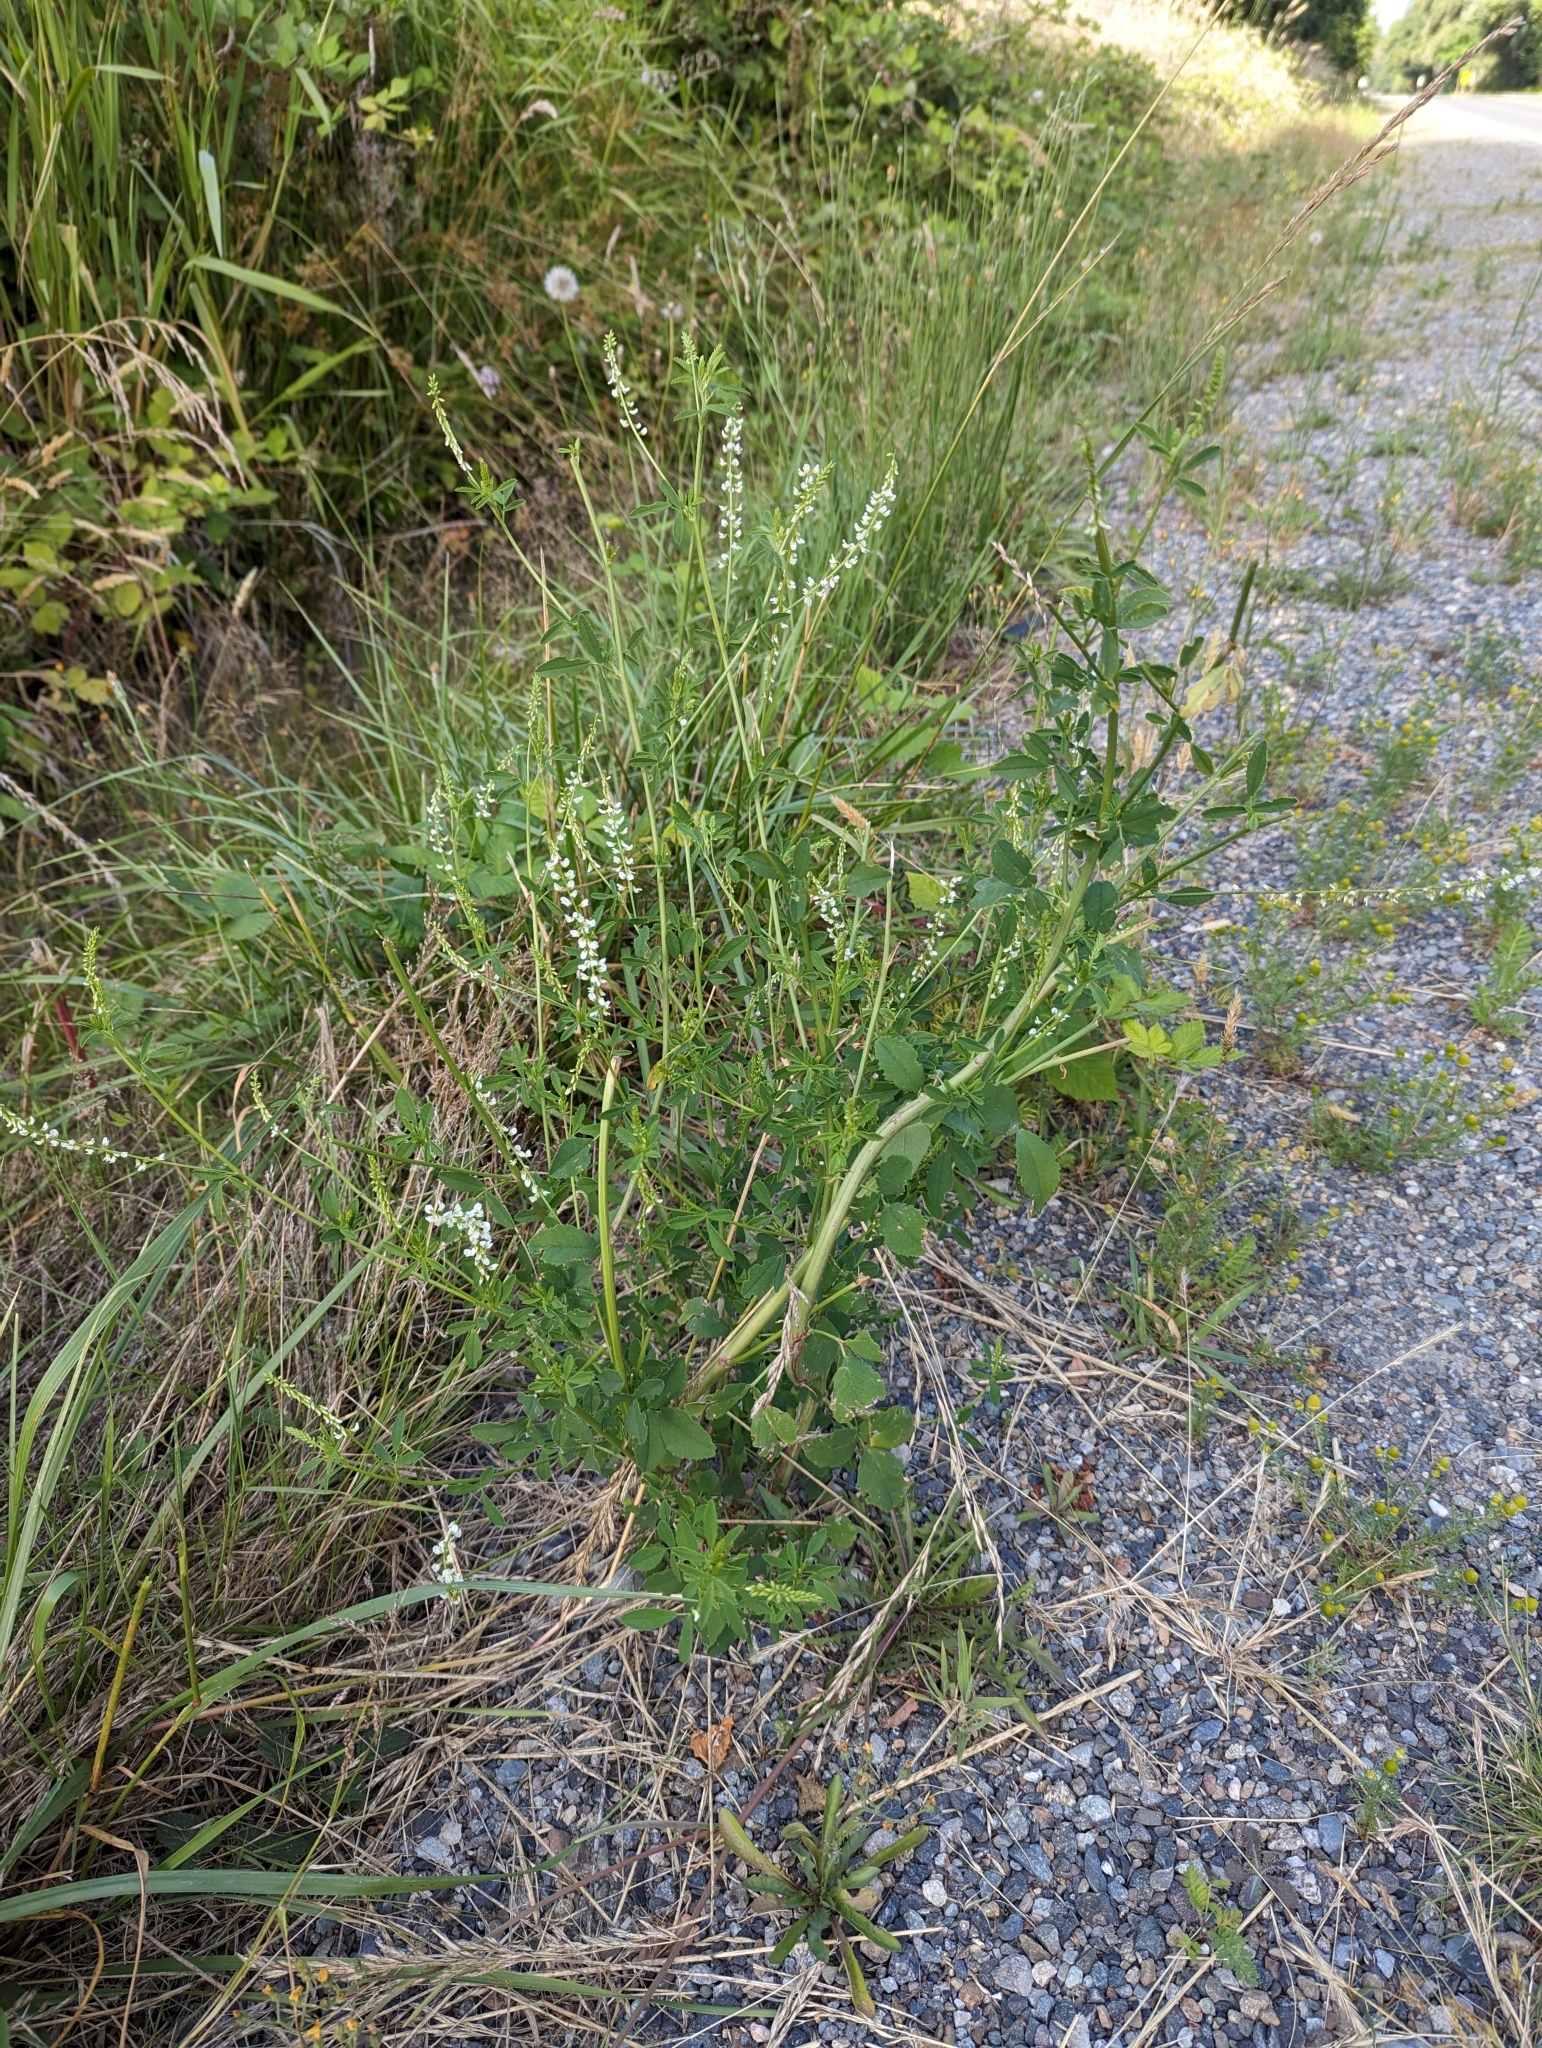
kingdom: Plantae
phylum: Tracheophyta
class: Magnoliopsida
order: Fabales
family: Fabaceae
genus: Melilotus
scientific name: Melilotus albus
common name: White melilot
